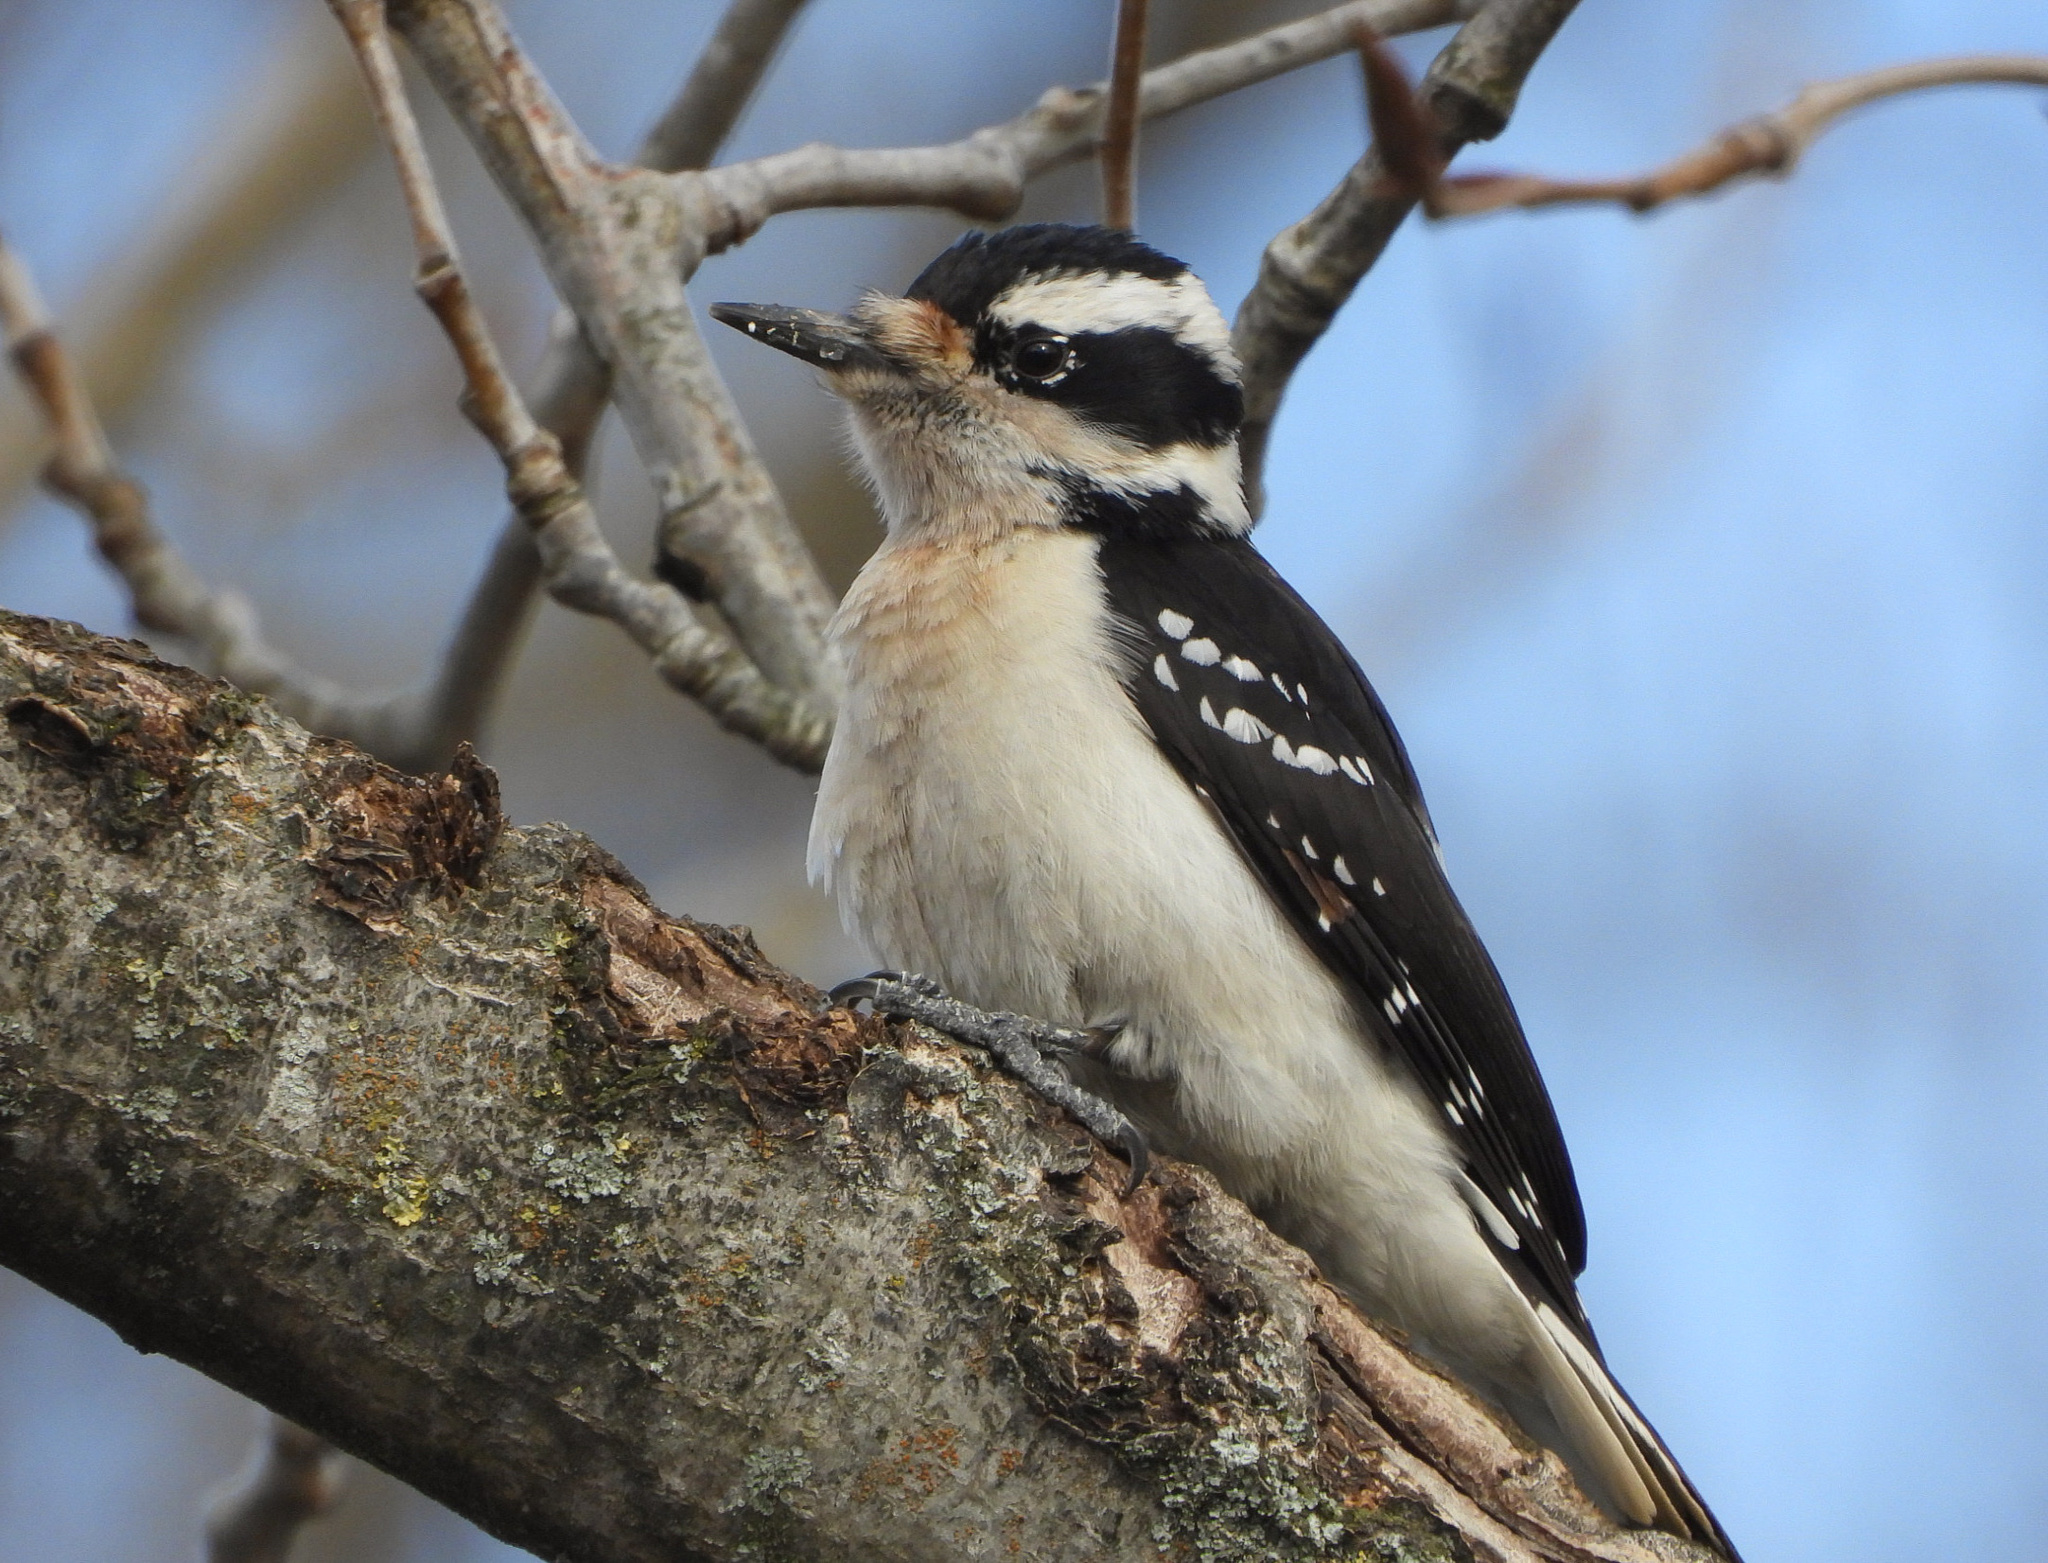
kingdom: Animalia
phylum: Chordata
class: Aves
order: Piciformes
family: Picidae
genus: Leuconotopicus
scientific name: Leuconotopicus villosus
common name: Hairy woodpecker
